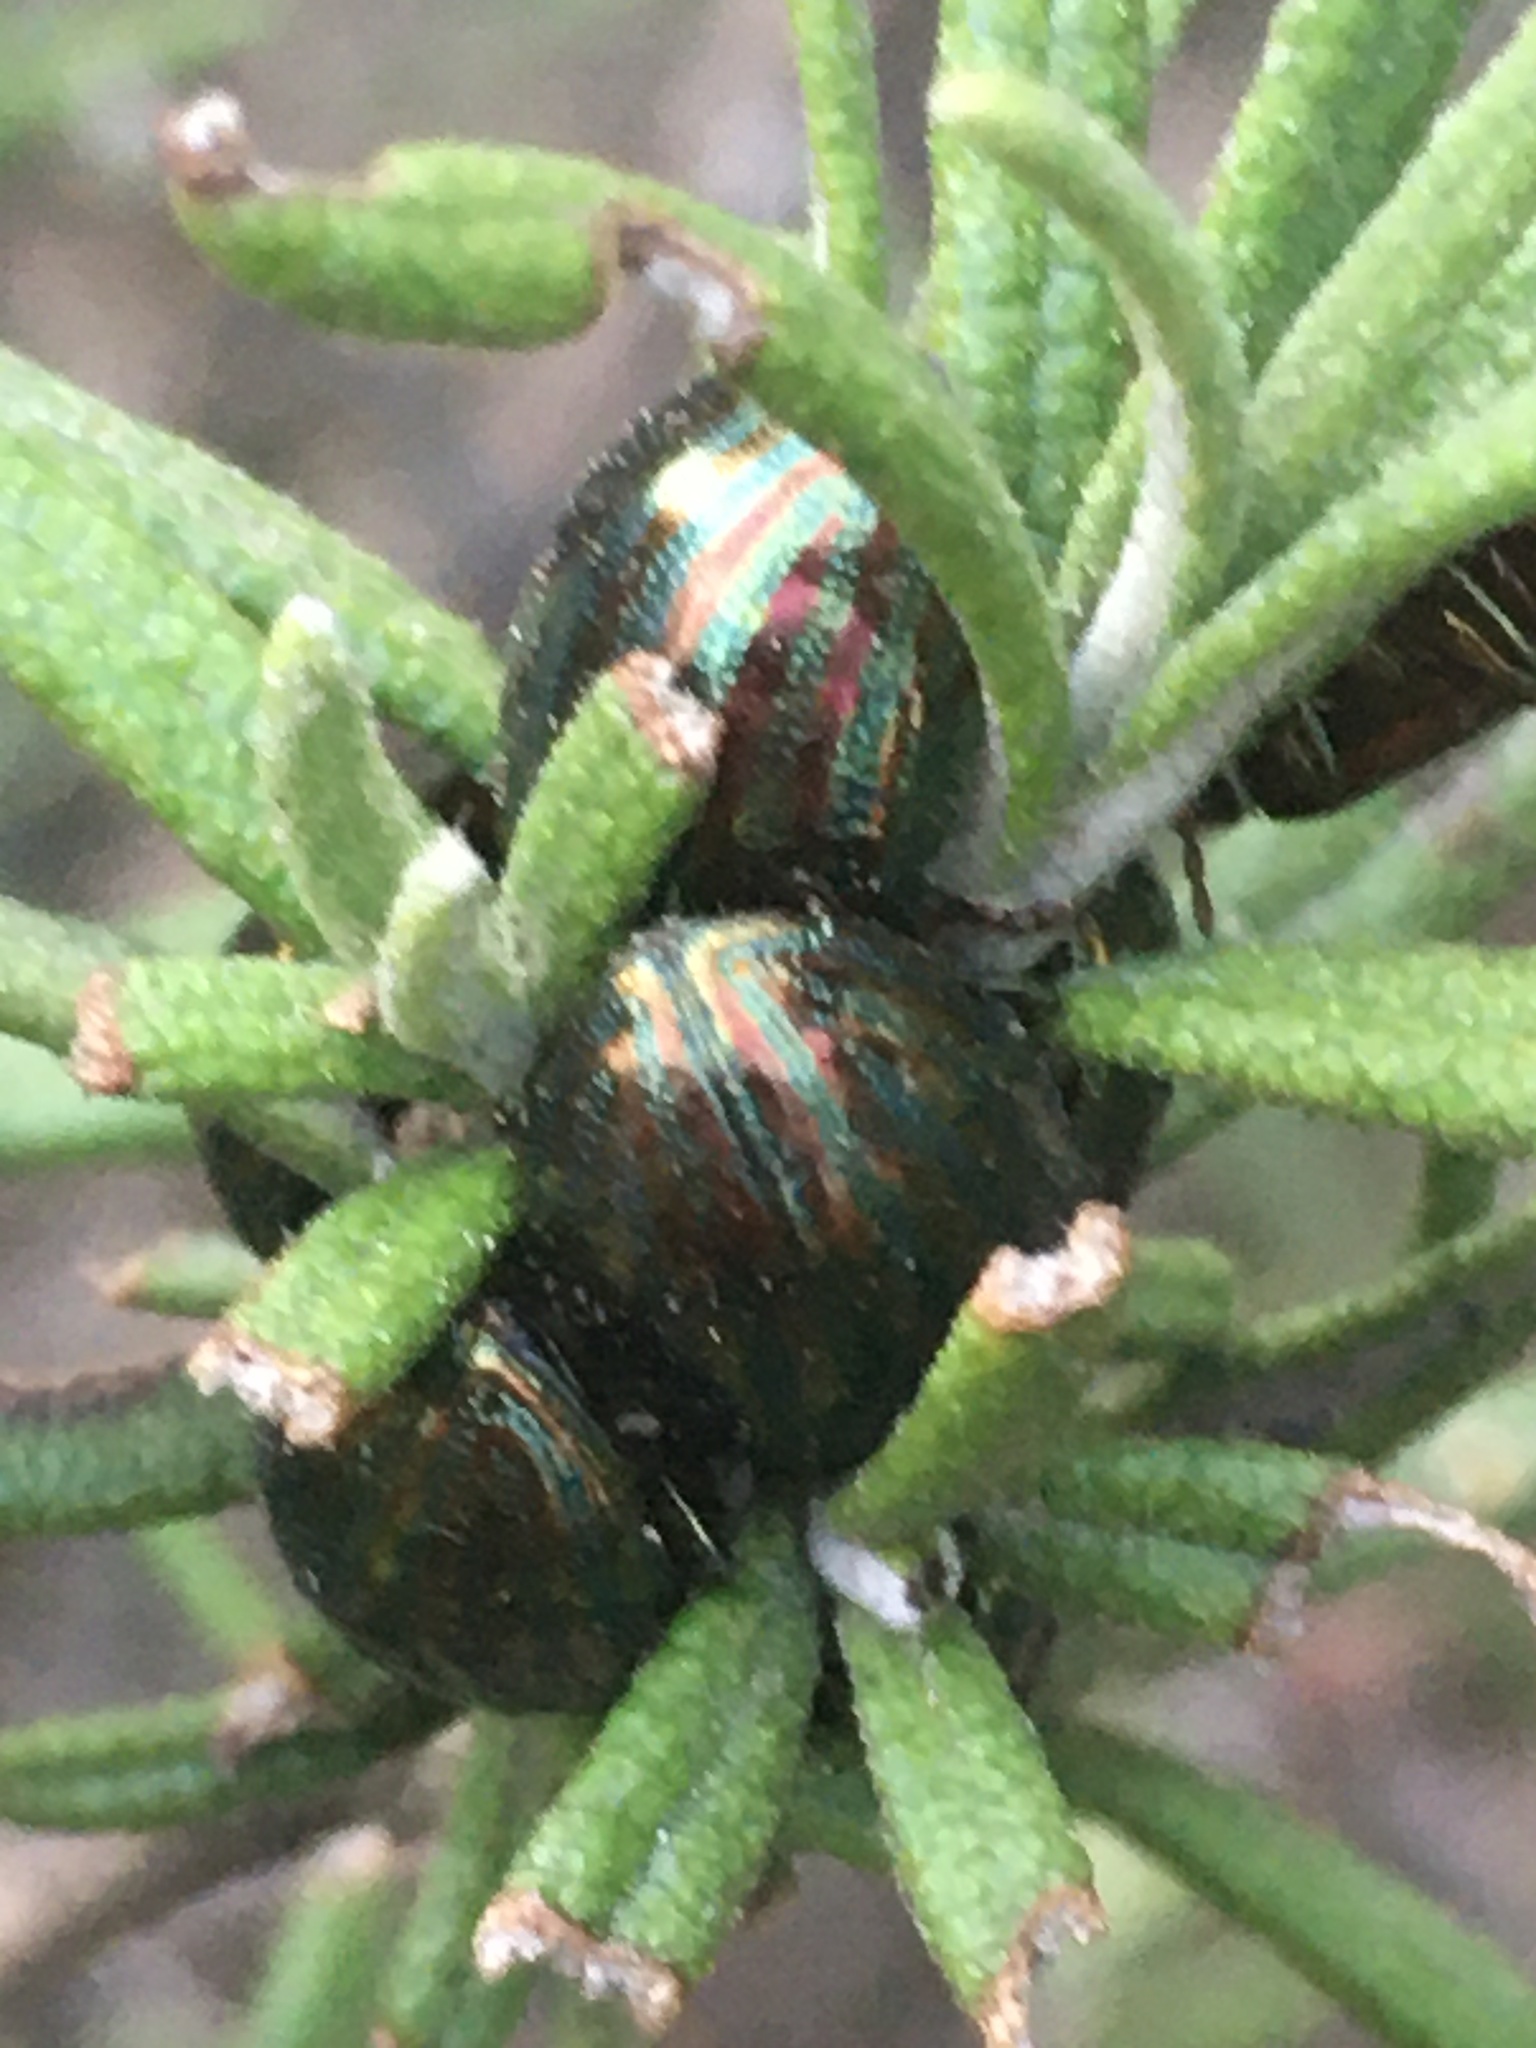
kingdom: Animalia
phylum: Arthropoda
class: Insecta
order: Coleoptera
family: Chrysomelidae
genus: Chrysolina
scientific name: Chrysolina americana
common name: Rosemary beetle
